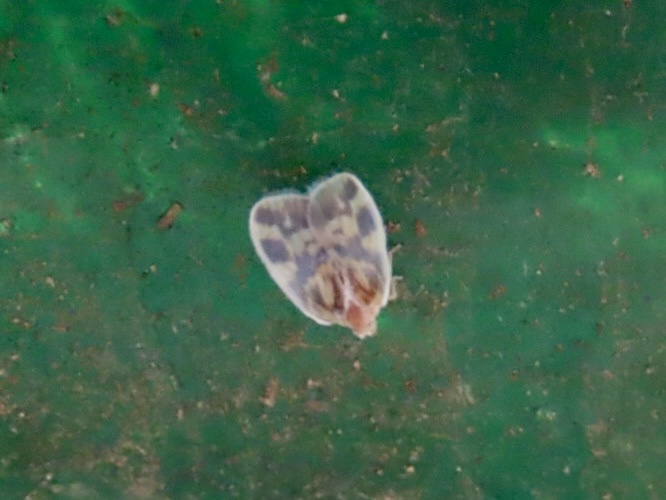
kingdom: Animalia
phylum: Arthropoda
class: Insecta
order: Hemiptera
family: Cixiidae
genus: Borysthenes
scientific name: Borysthenes emarginatus
